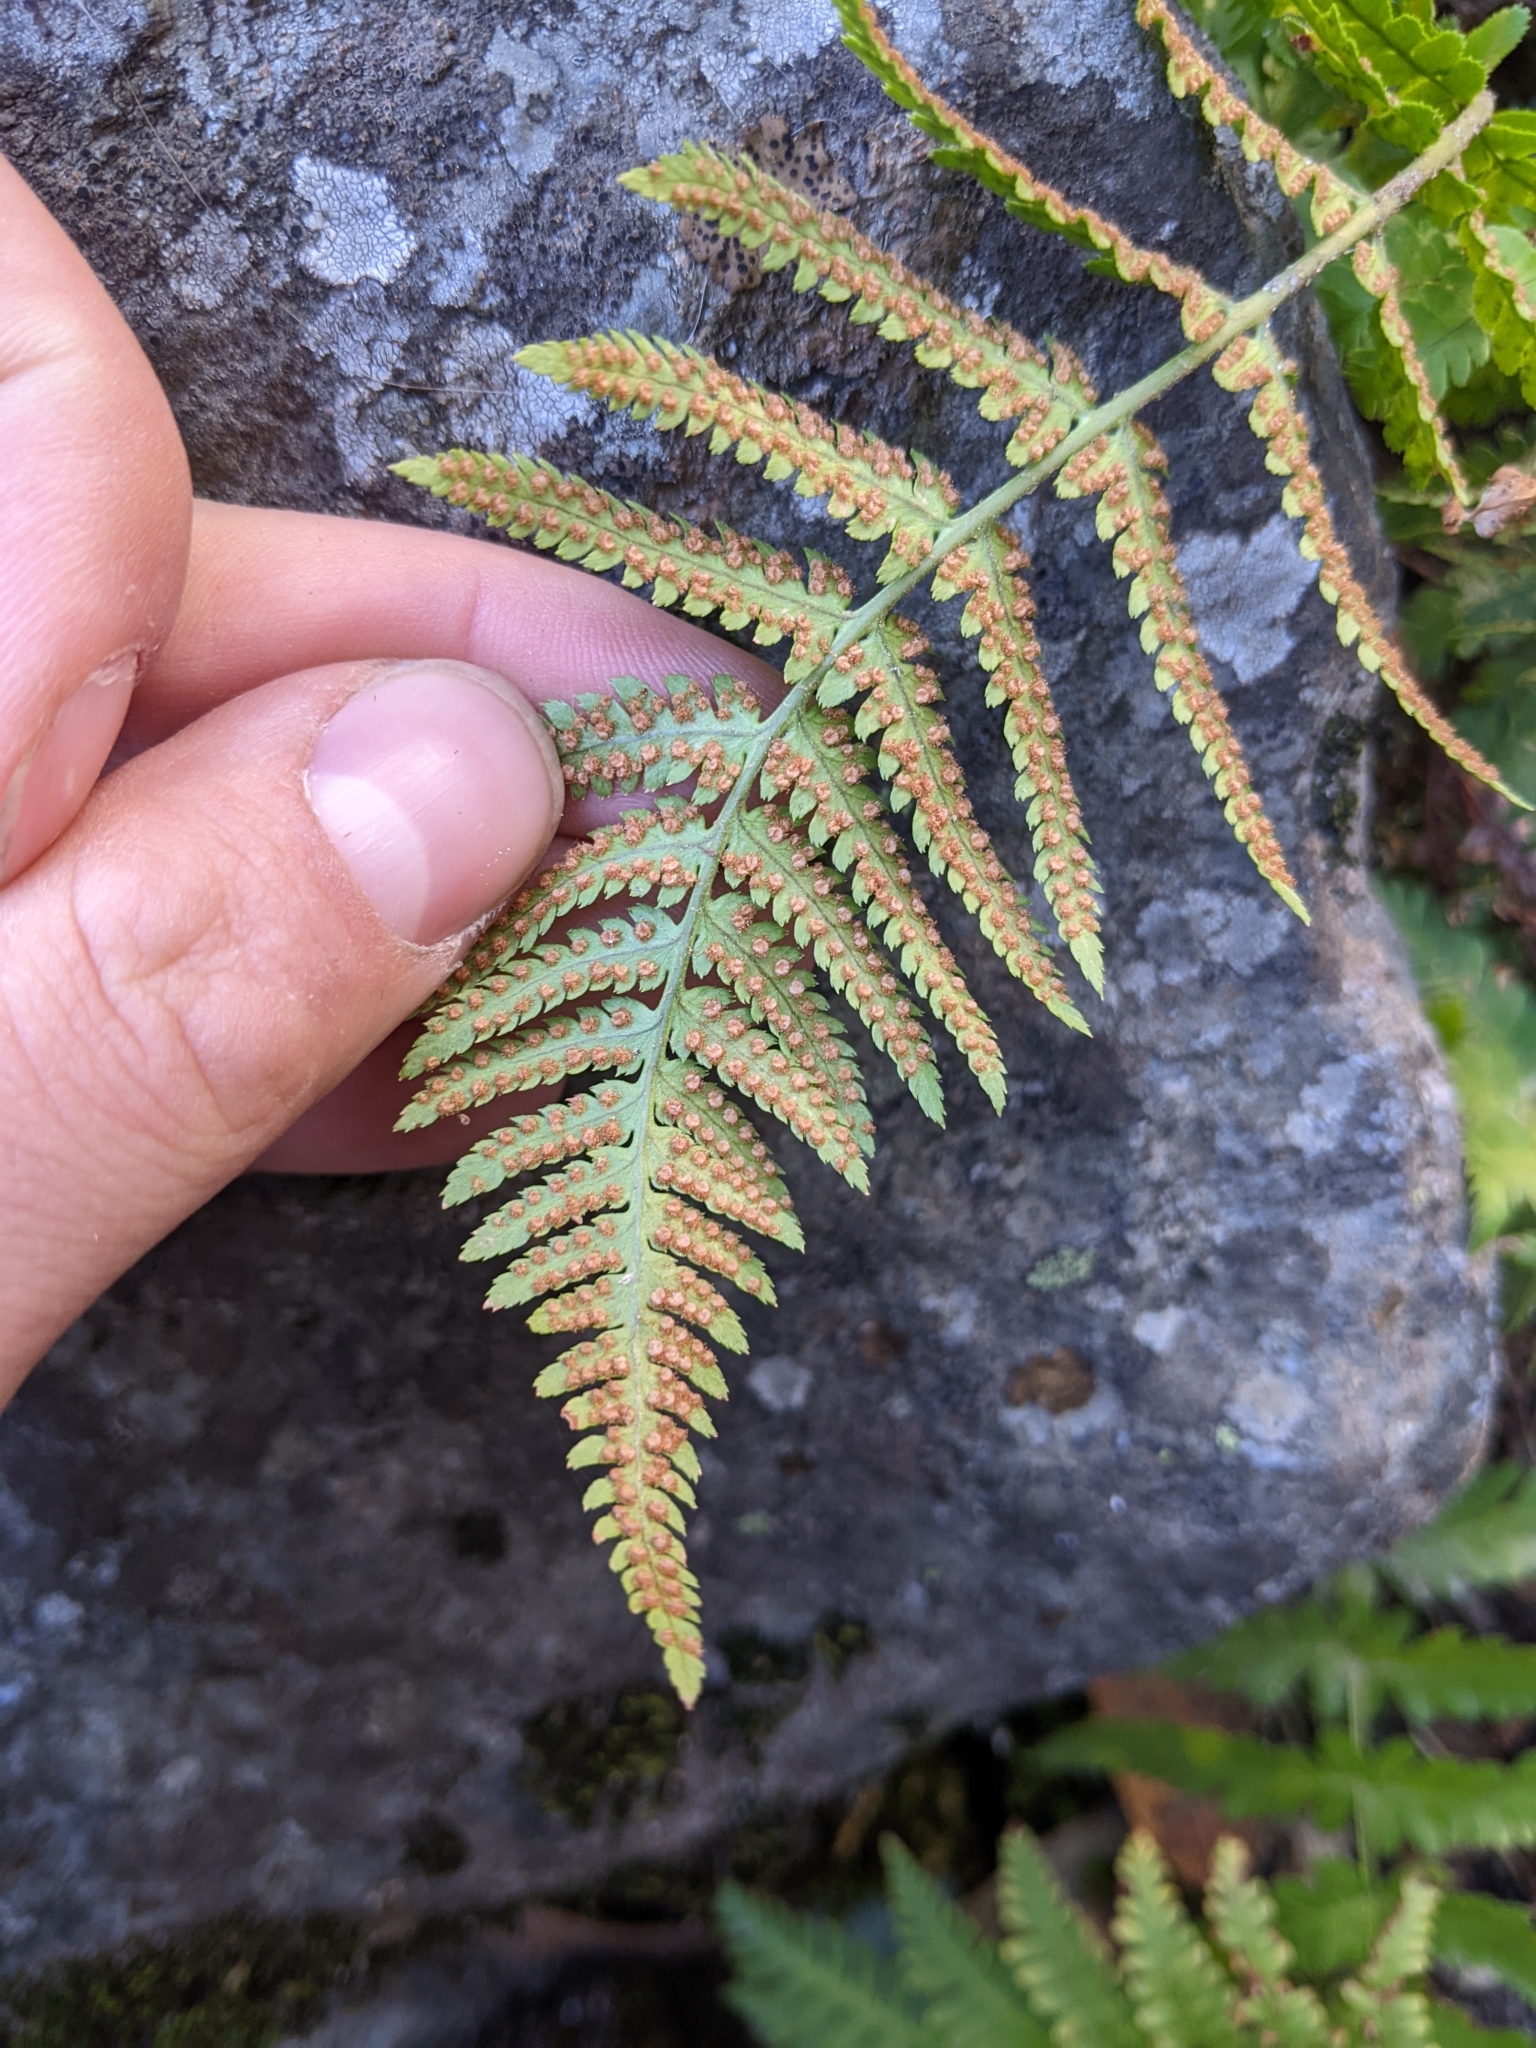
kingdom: Plantae
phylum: Tracheophyta
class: Polypodiopsida
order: Polypodiales
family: Dryopteridaceae
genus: Dryopteris
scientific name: Dryopteris arguta
